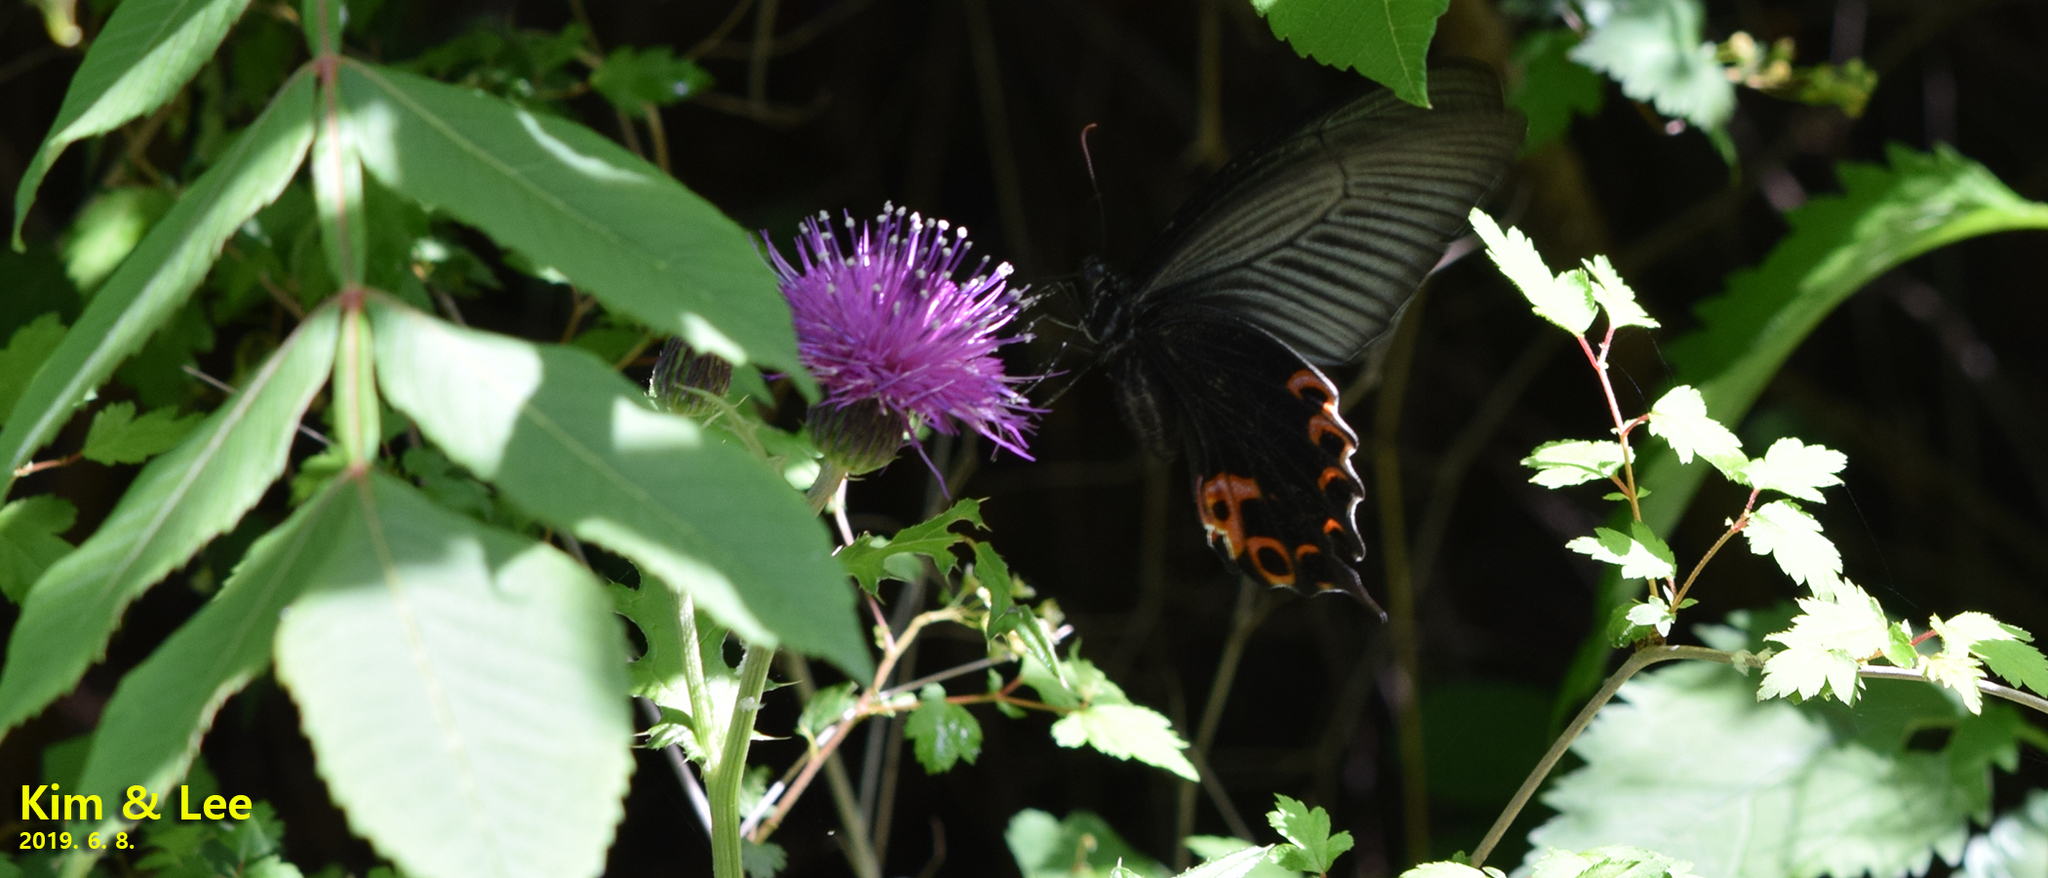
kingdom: Animalia
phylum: Arthropoda
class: Insecta
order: Lepidoptera
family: Papilionidae
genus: Papilio
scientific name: Papilio protenor
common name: Spangle
